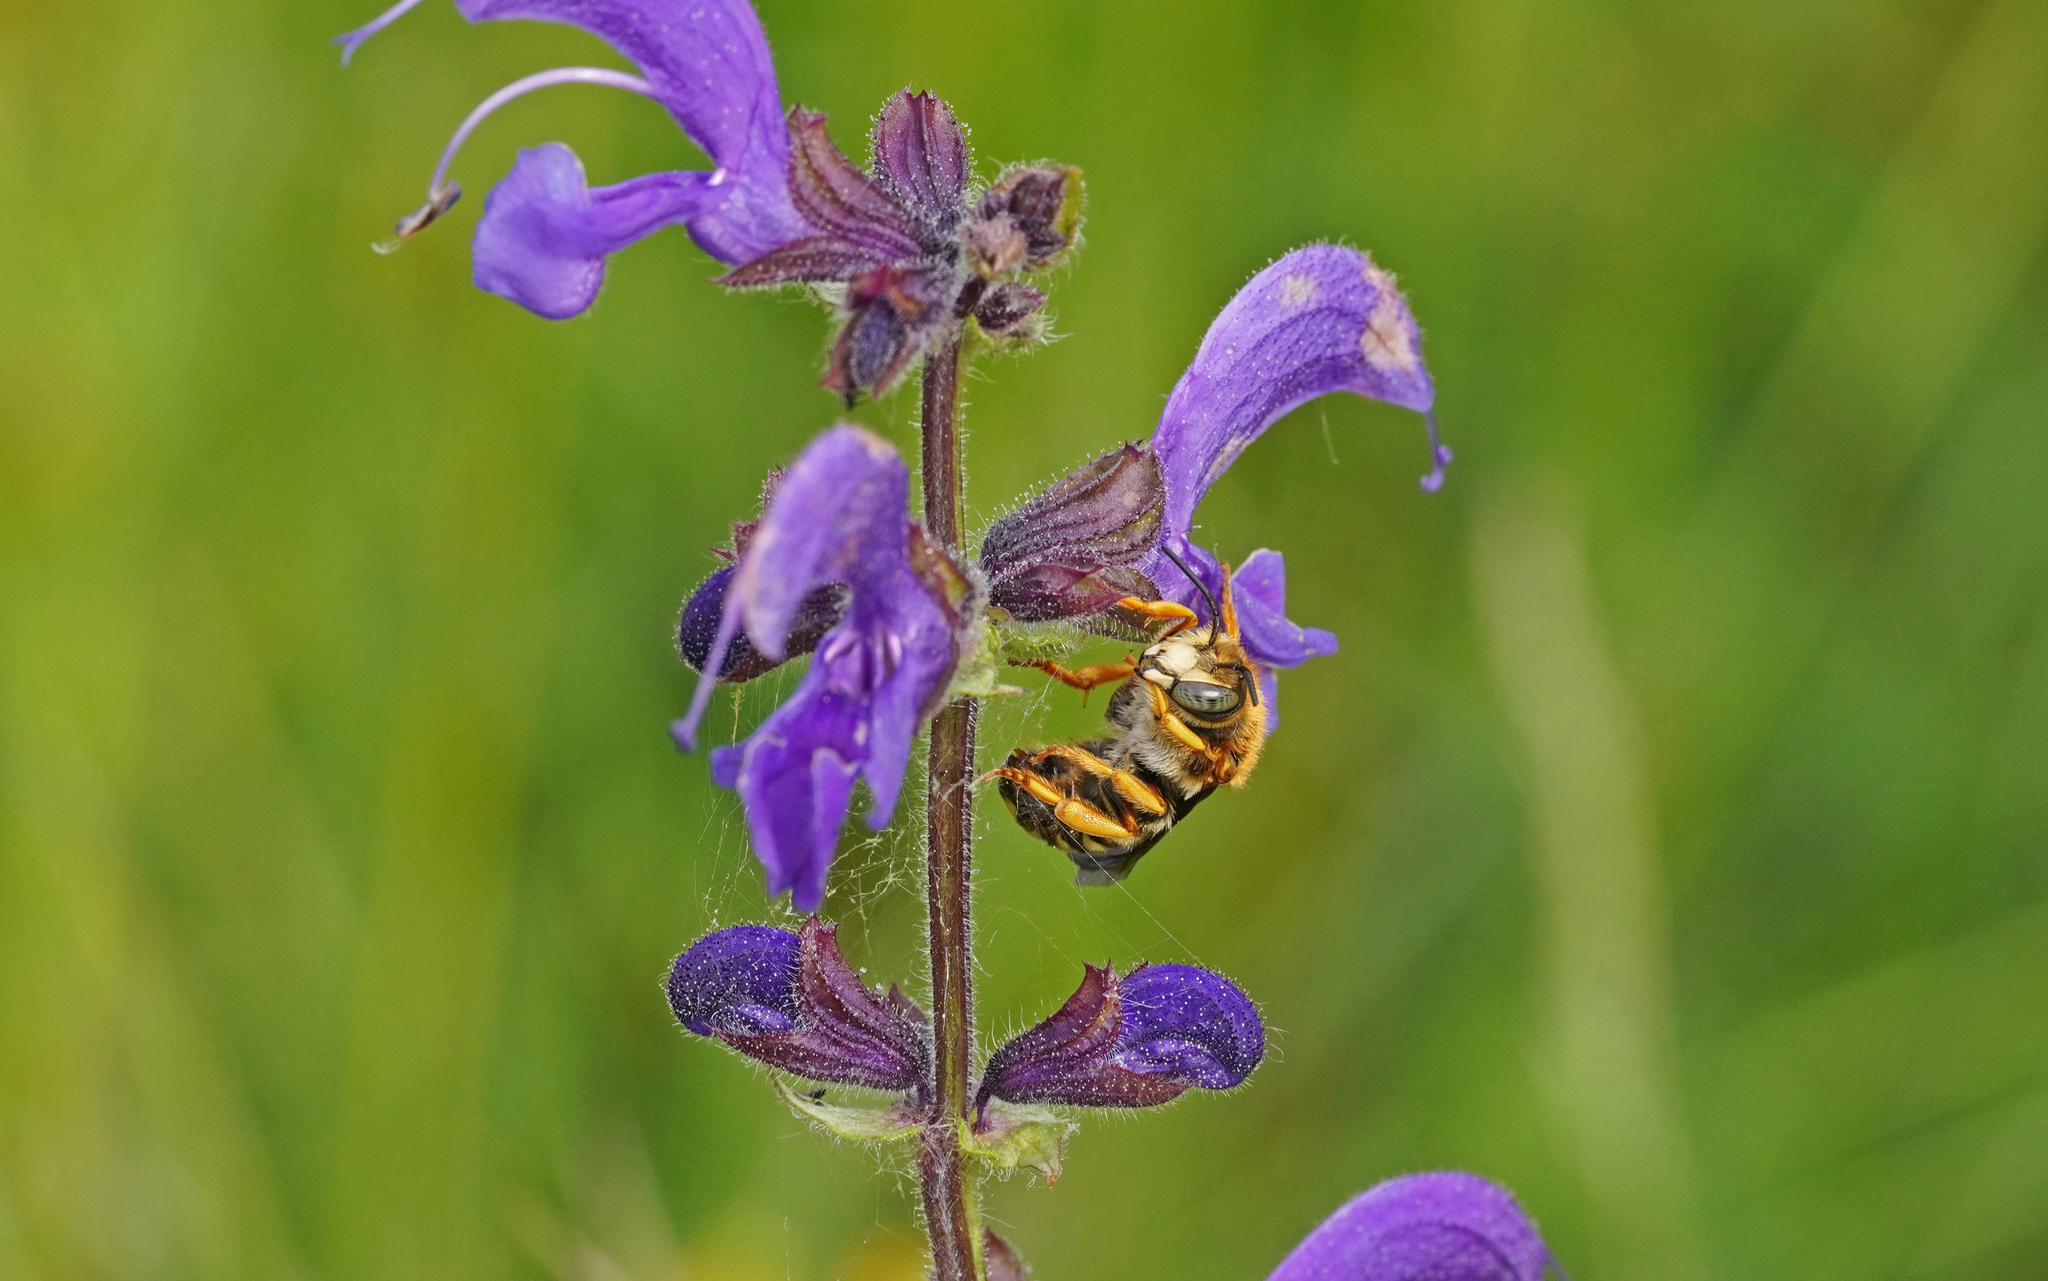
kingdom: Animalia
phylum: Arthropoda
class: Insecta
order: Hymenoptera
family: Megachilidae
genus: Rhodanthidium
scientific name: Rhodanthidium septemdentatum
